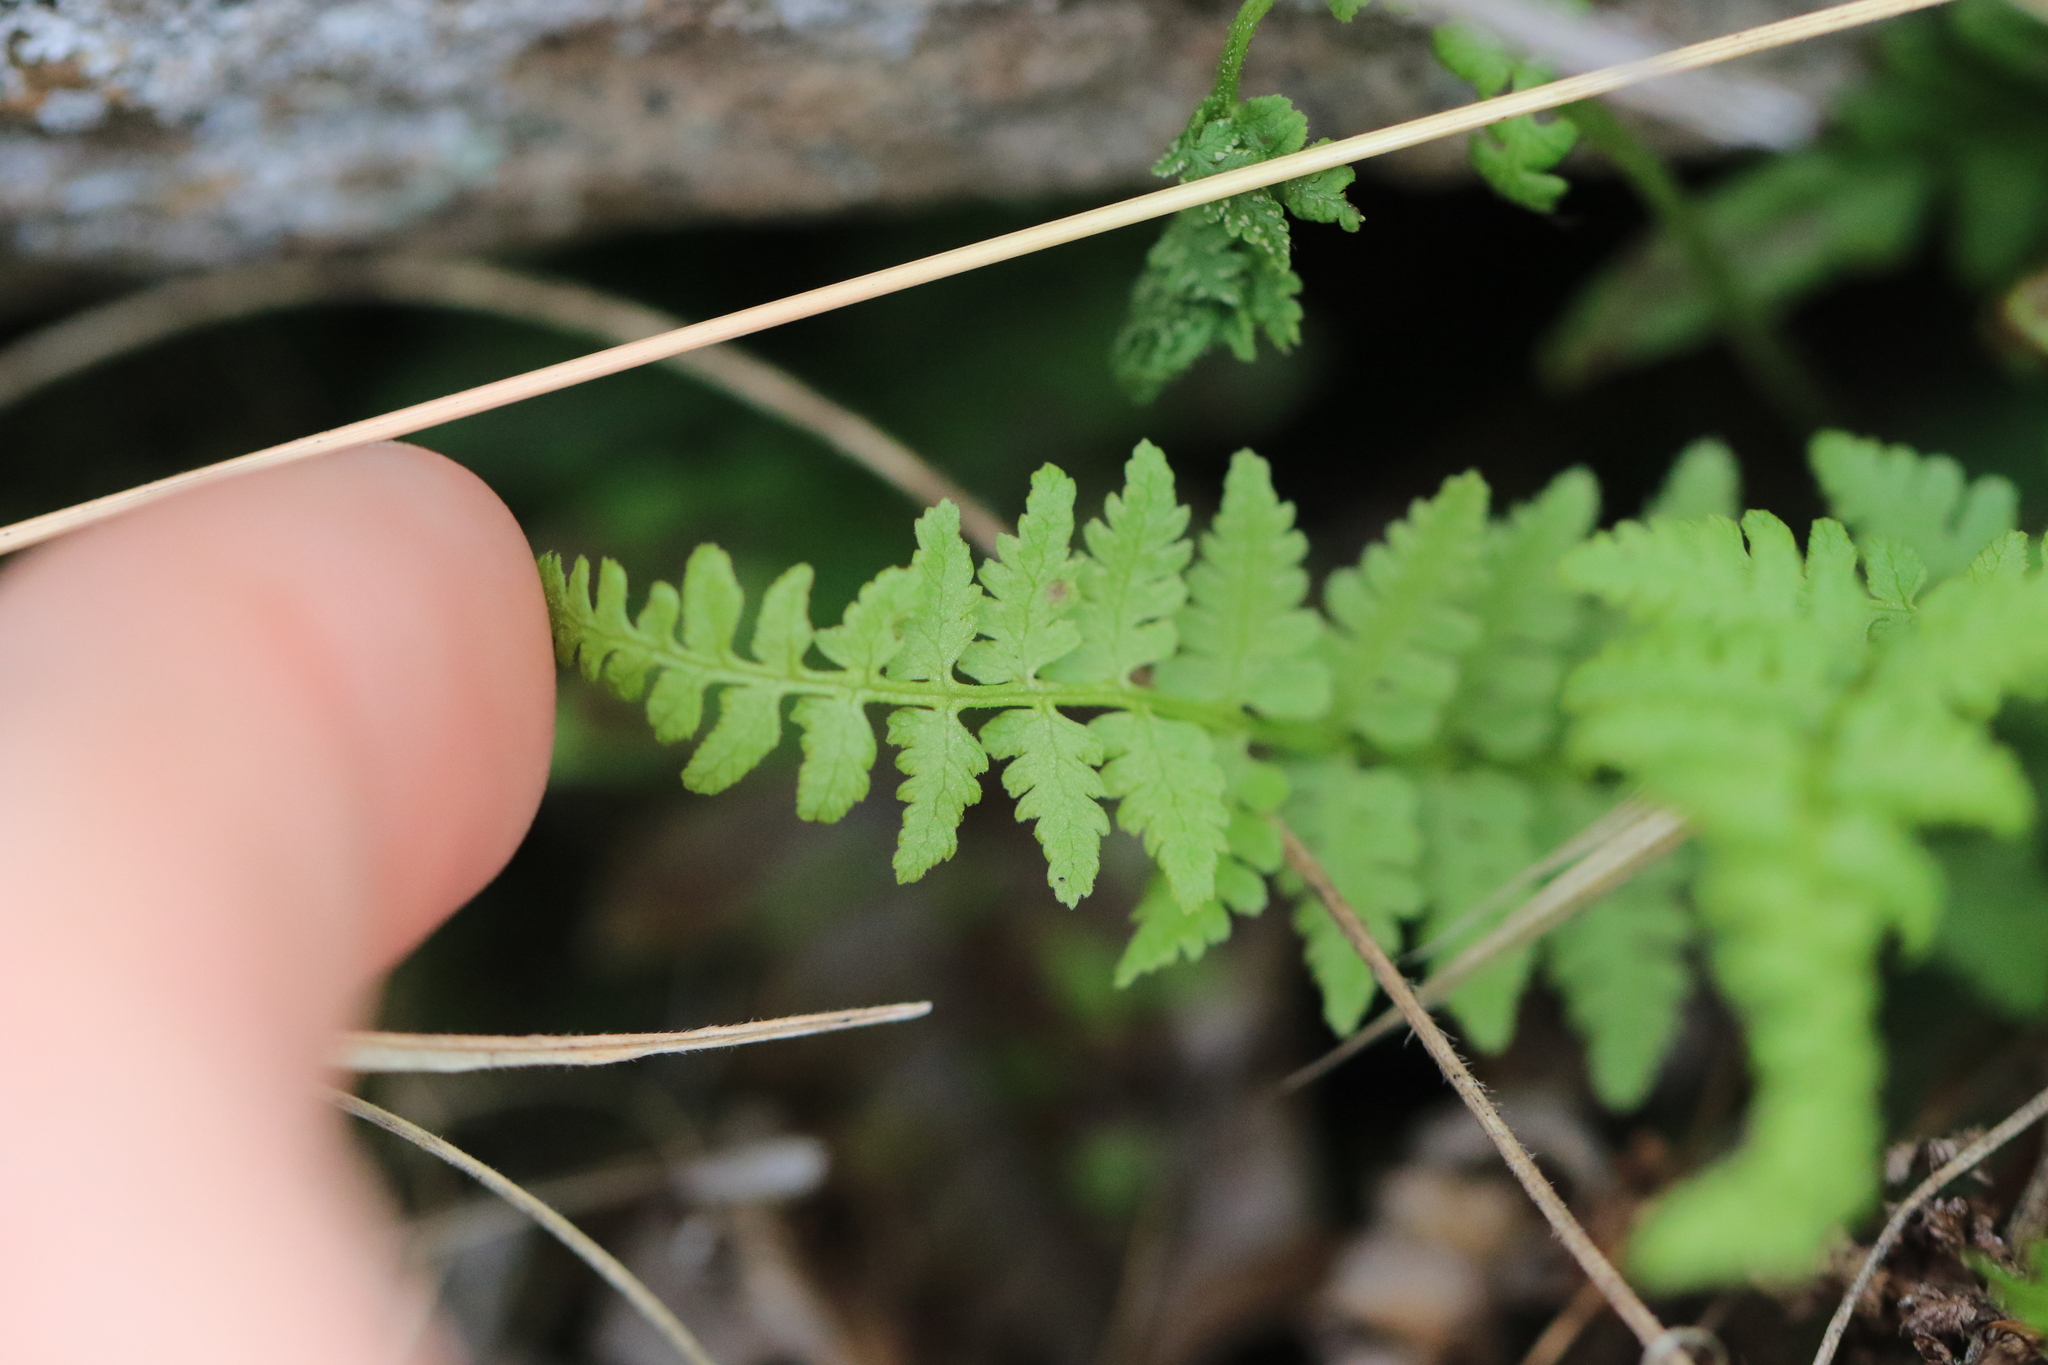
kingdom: Plantae
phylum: Tracheophyta
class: Polypodiopsida
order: Polypodiales
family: Cystopteridaceae
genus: Cystopteris
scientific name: Cystopteris fragilis
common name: Brittle bladder fern
